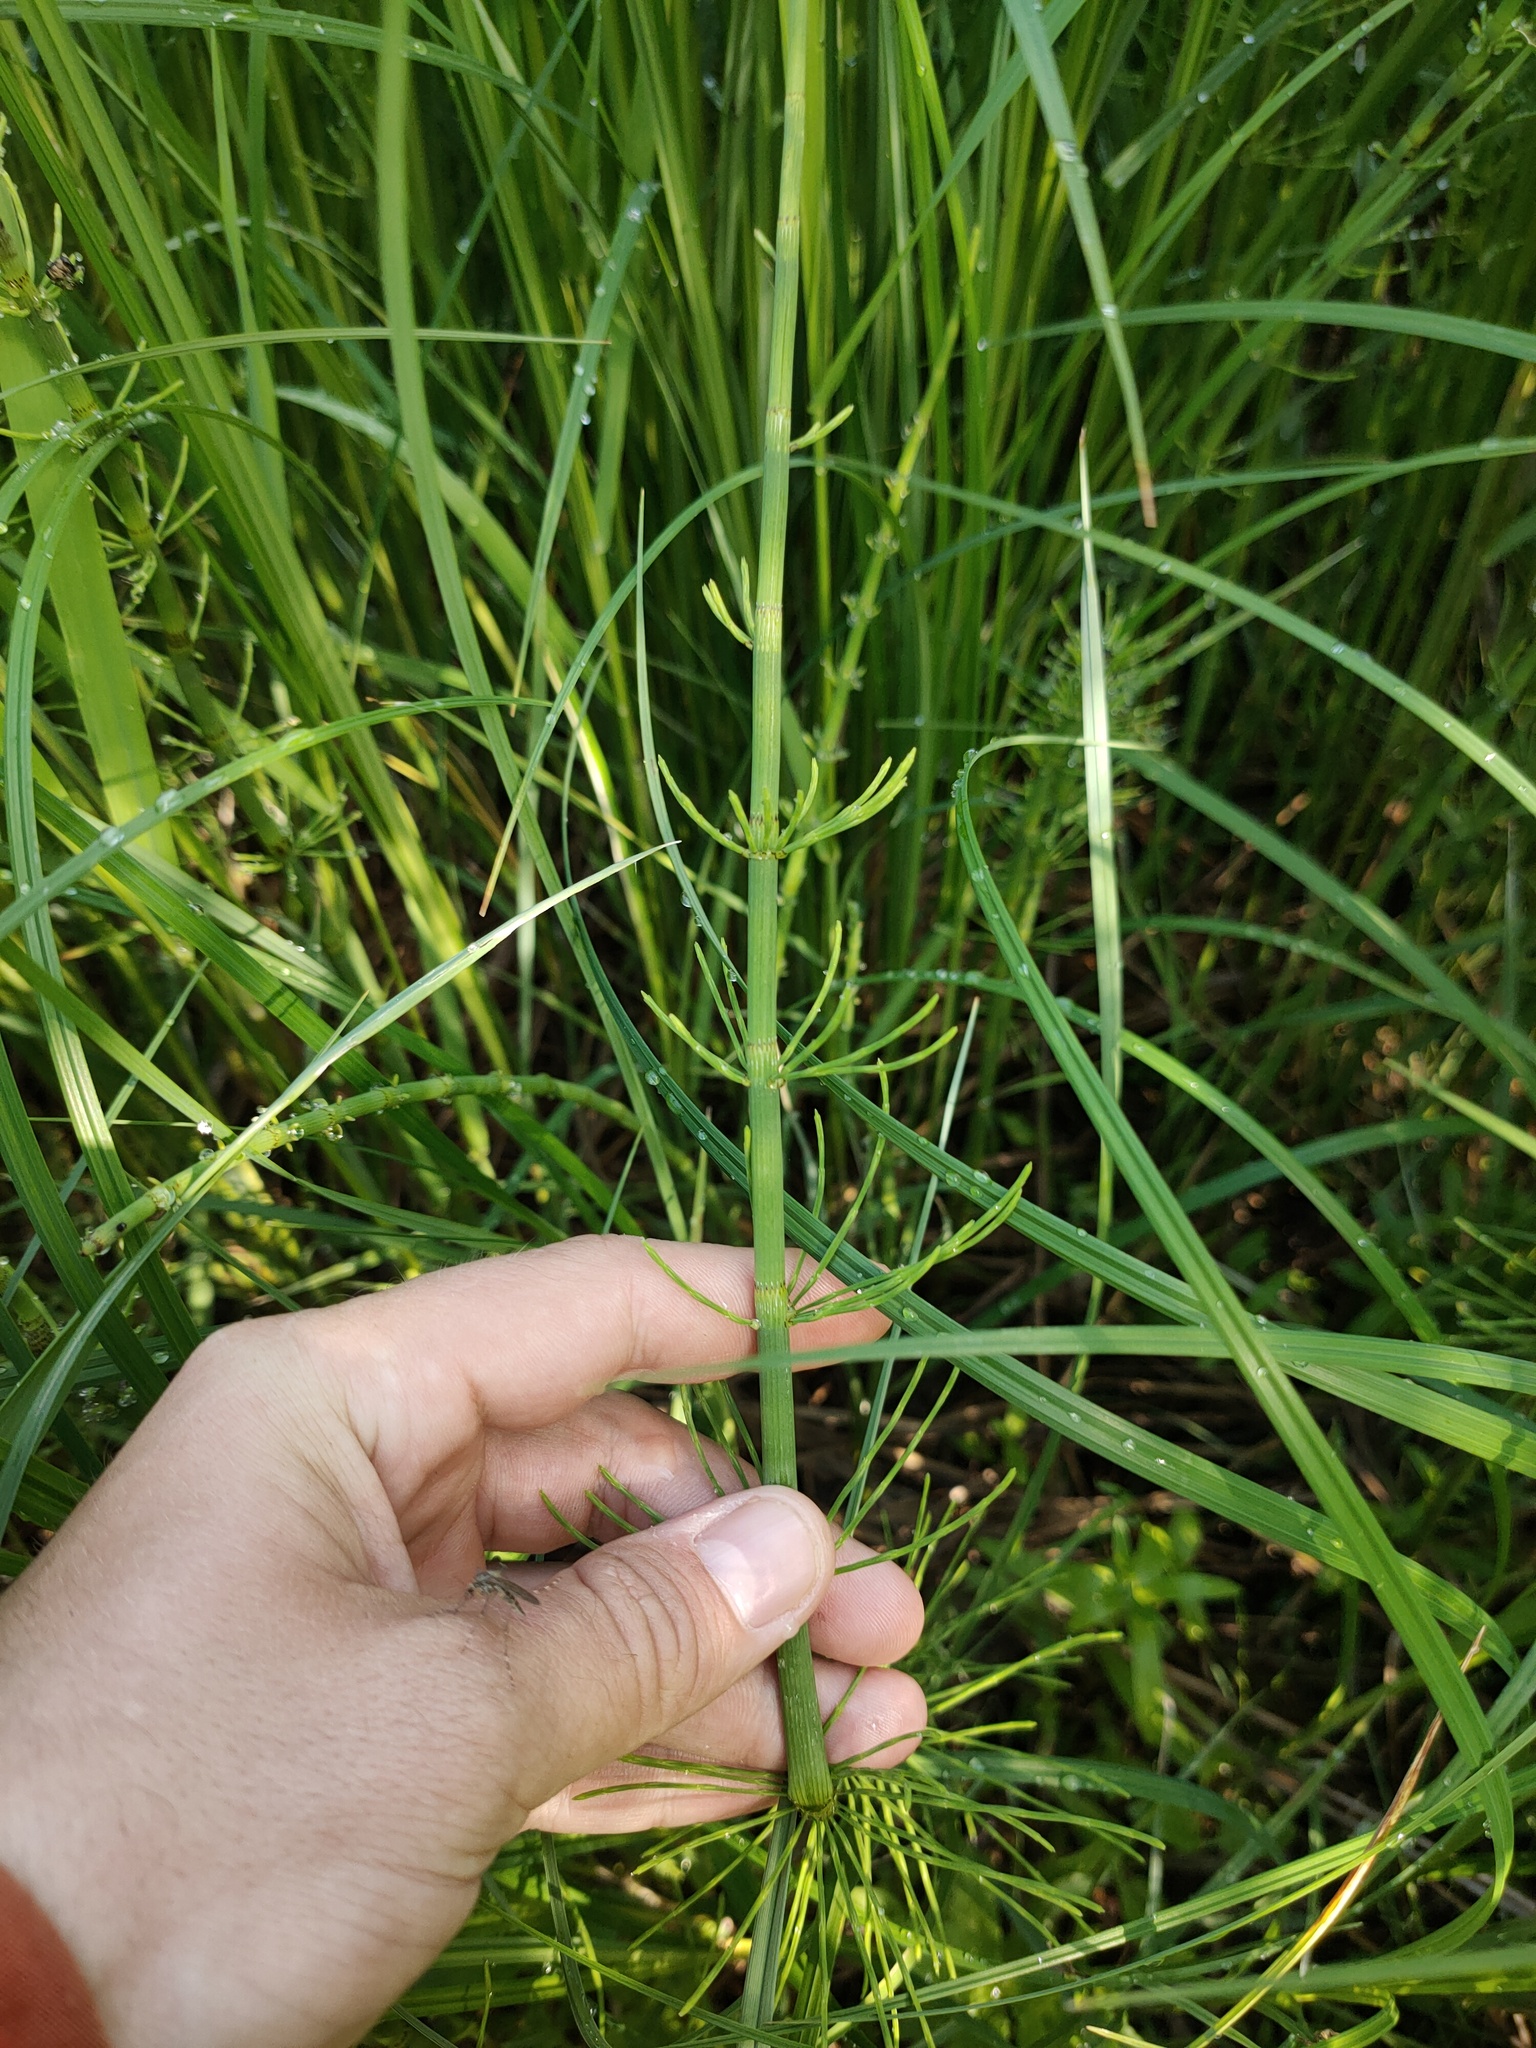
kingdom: Plantae
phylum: Tracheophyta
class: Polypodiopsida
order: Equisetales
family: Equisetaceae
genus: Equisetum
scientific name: Equisetum fluviatile
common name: Water horsetail
